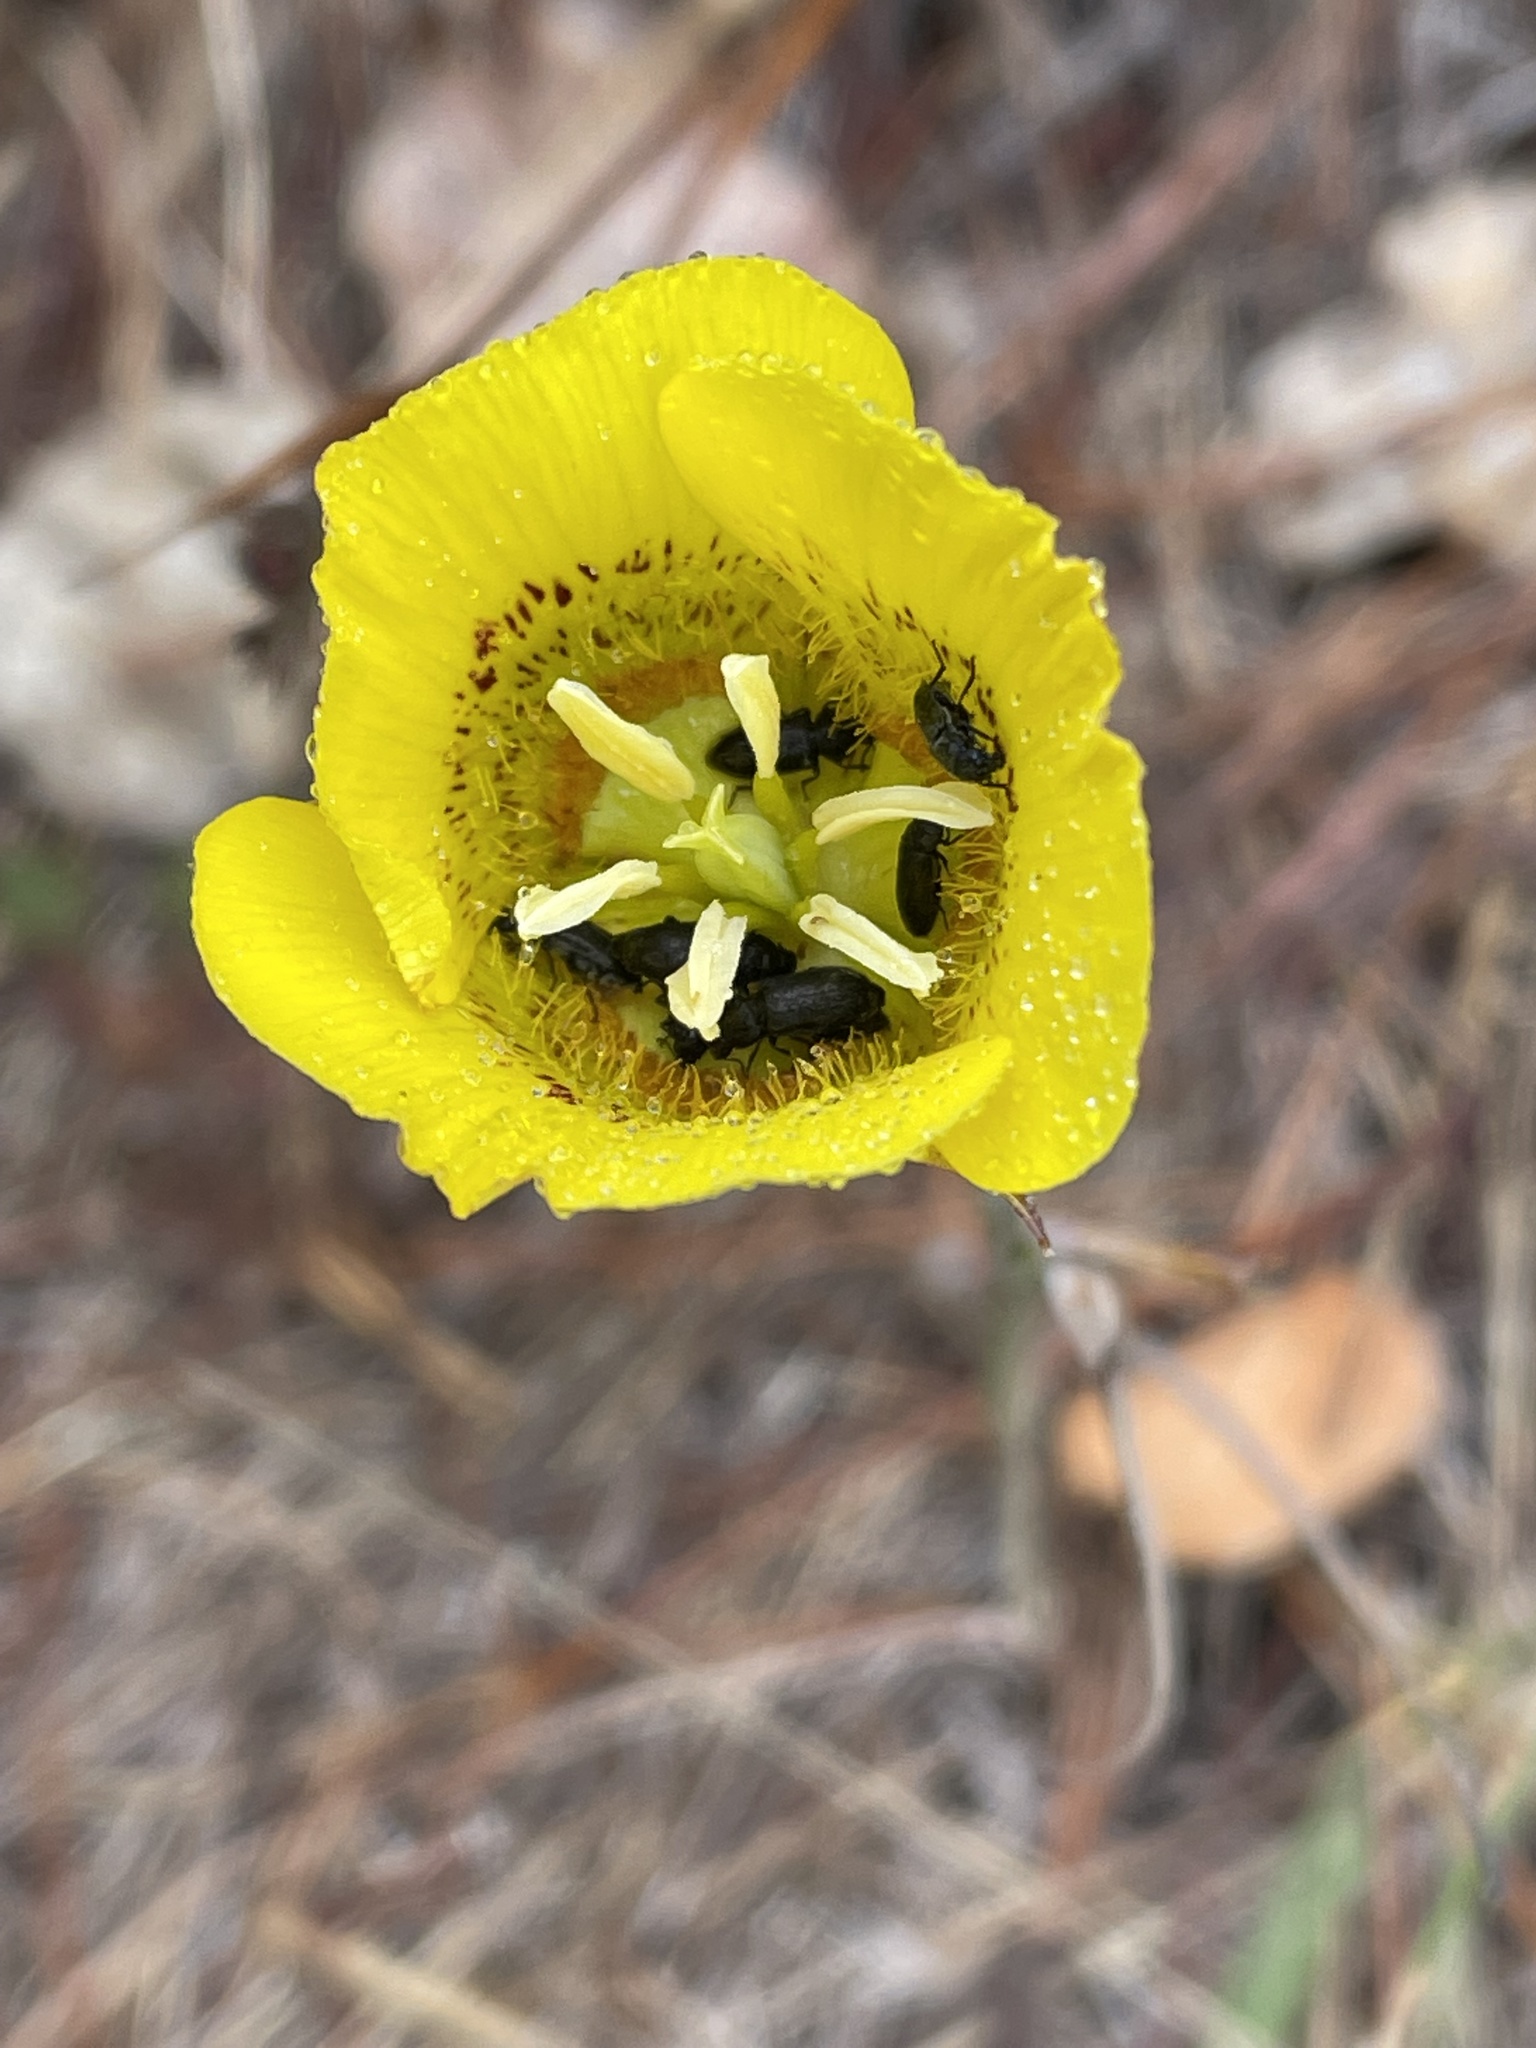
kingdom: Plantae
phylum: Tracheophyta
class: Liliopsida
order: Liliales
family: Liliaceae
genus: Calochortus
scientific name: Calochortus luteus
